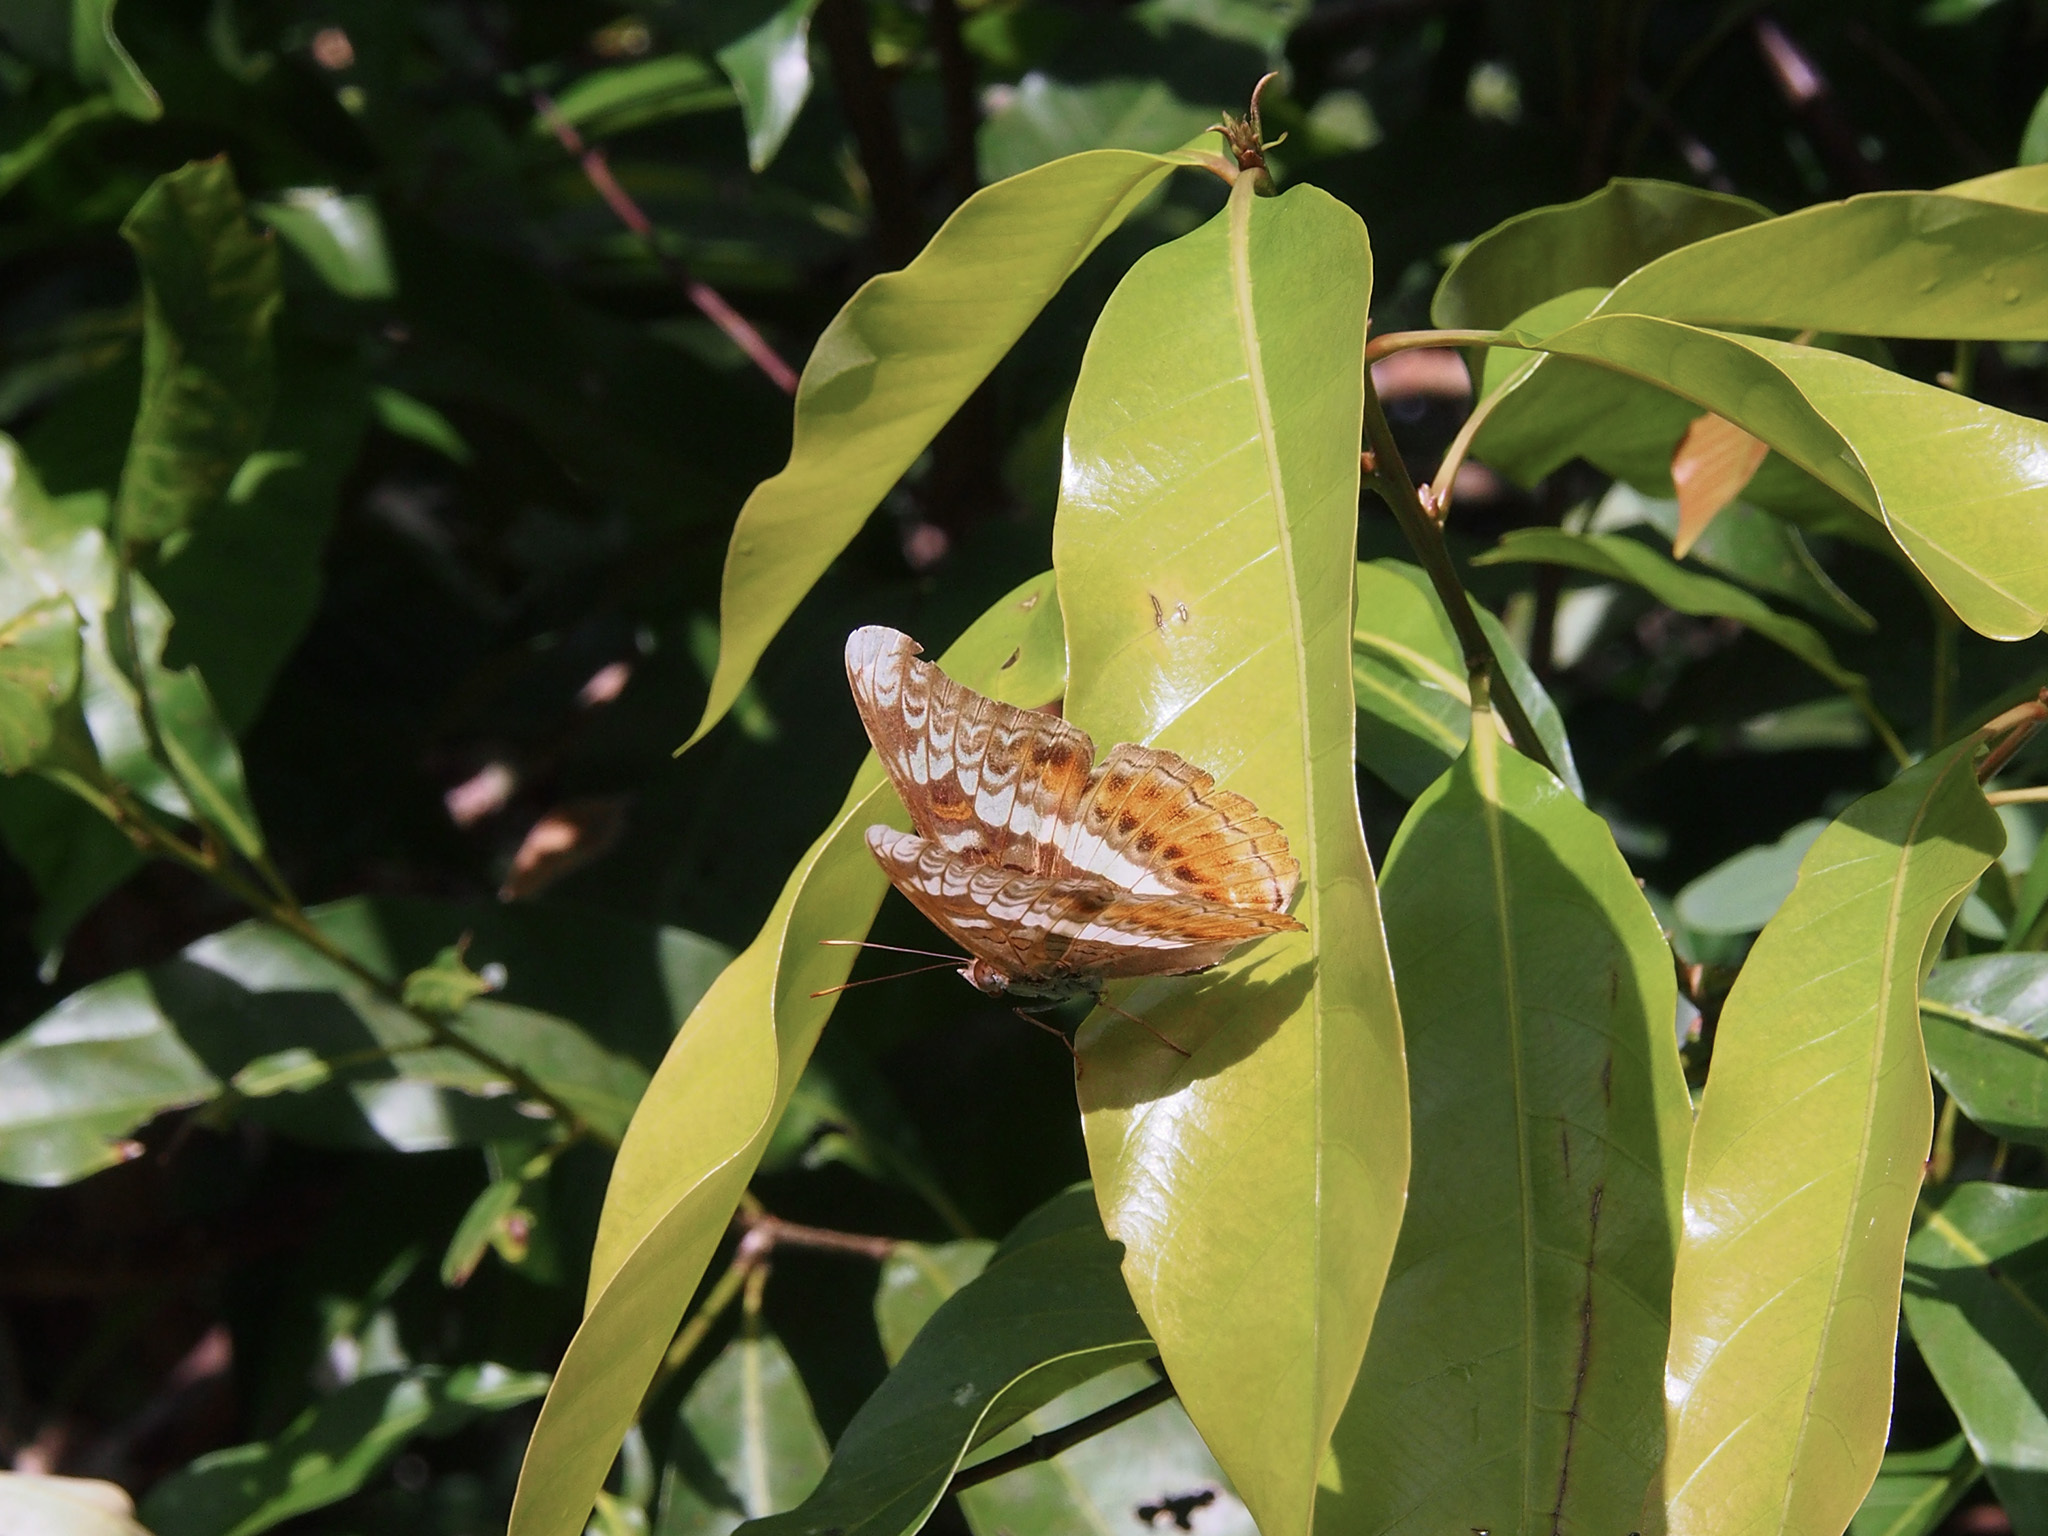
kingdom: Animalia
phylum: Arthropoda
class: Insecta
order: Lepidoptera
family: Nymphalidae
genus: Lebadea
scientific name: Lebadea martha
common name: Knight
